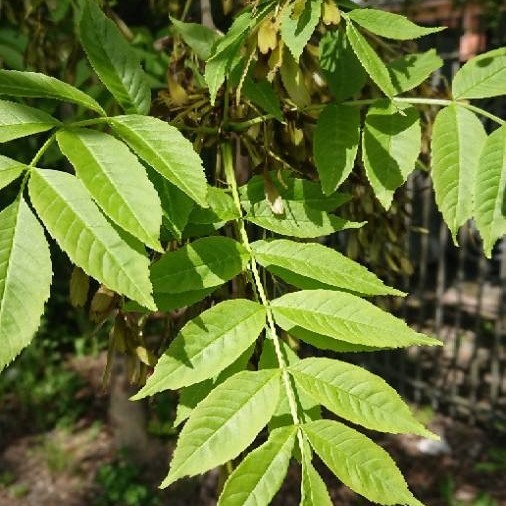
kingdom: Plantae
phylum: Tracheophyta
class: Magnoliopsida
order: Lamiales
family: Oleaceae
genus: Fraxinus
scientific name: Fraxinus excelsior
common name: European ash
